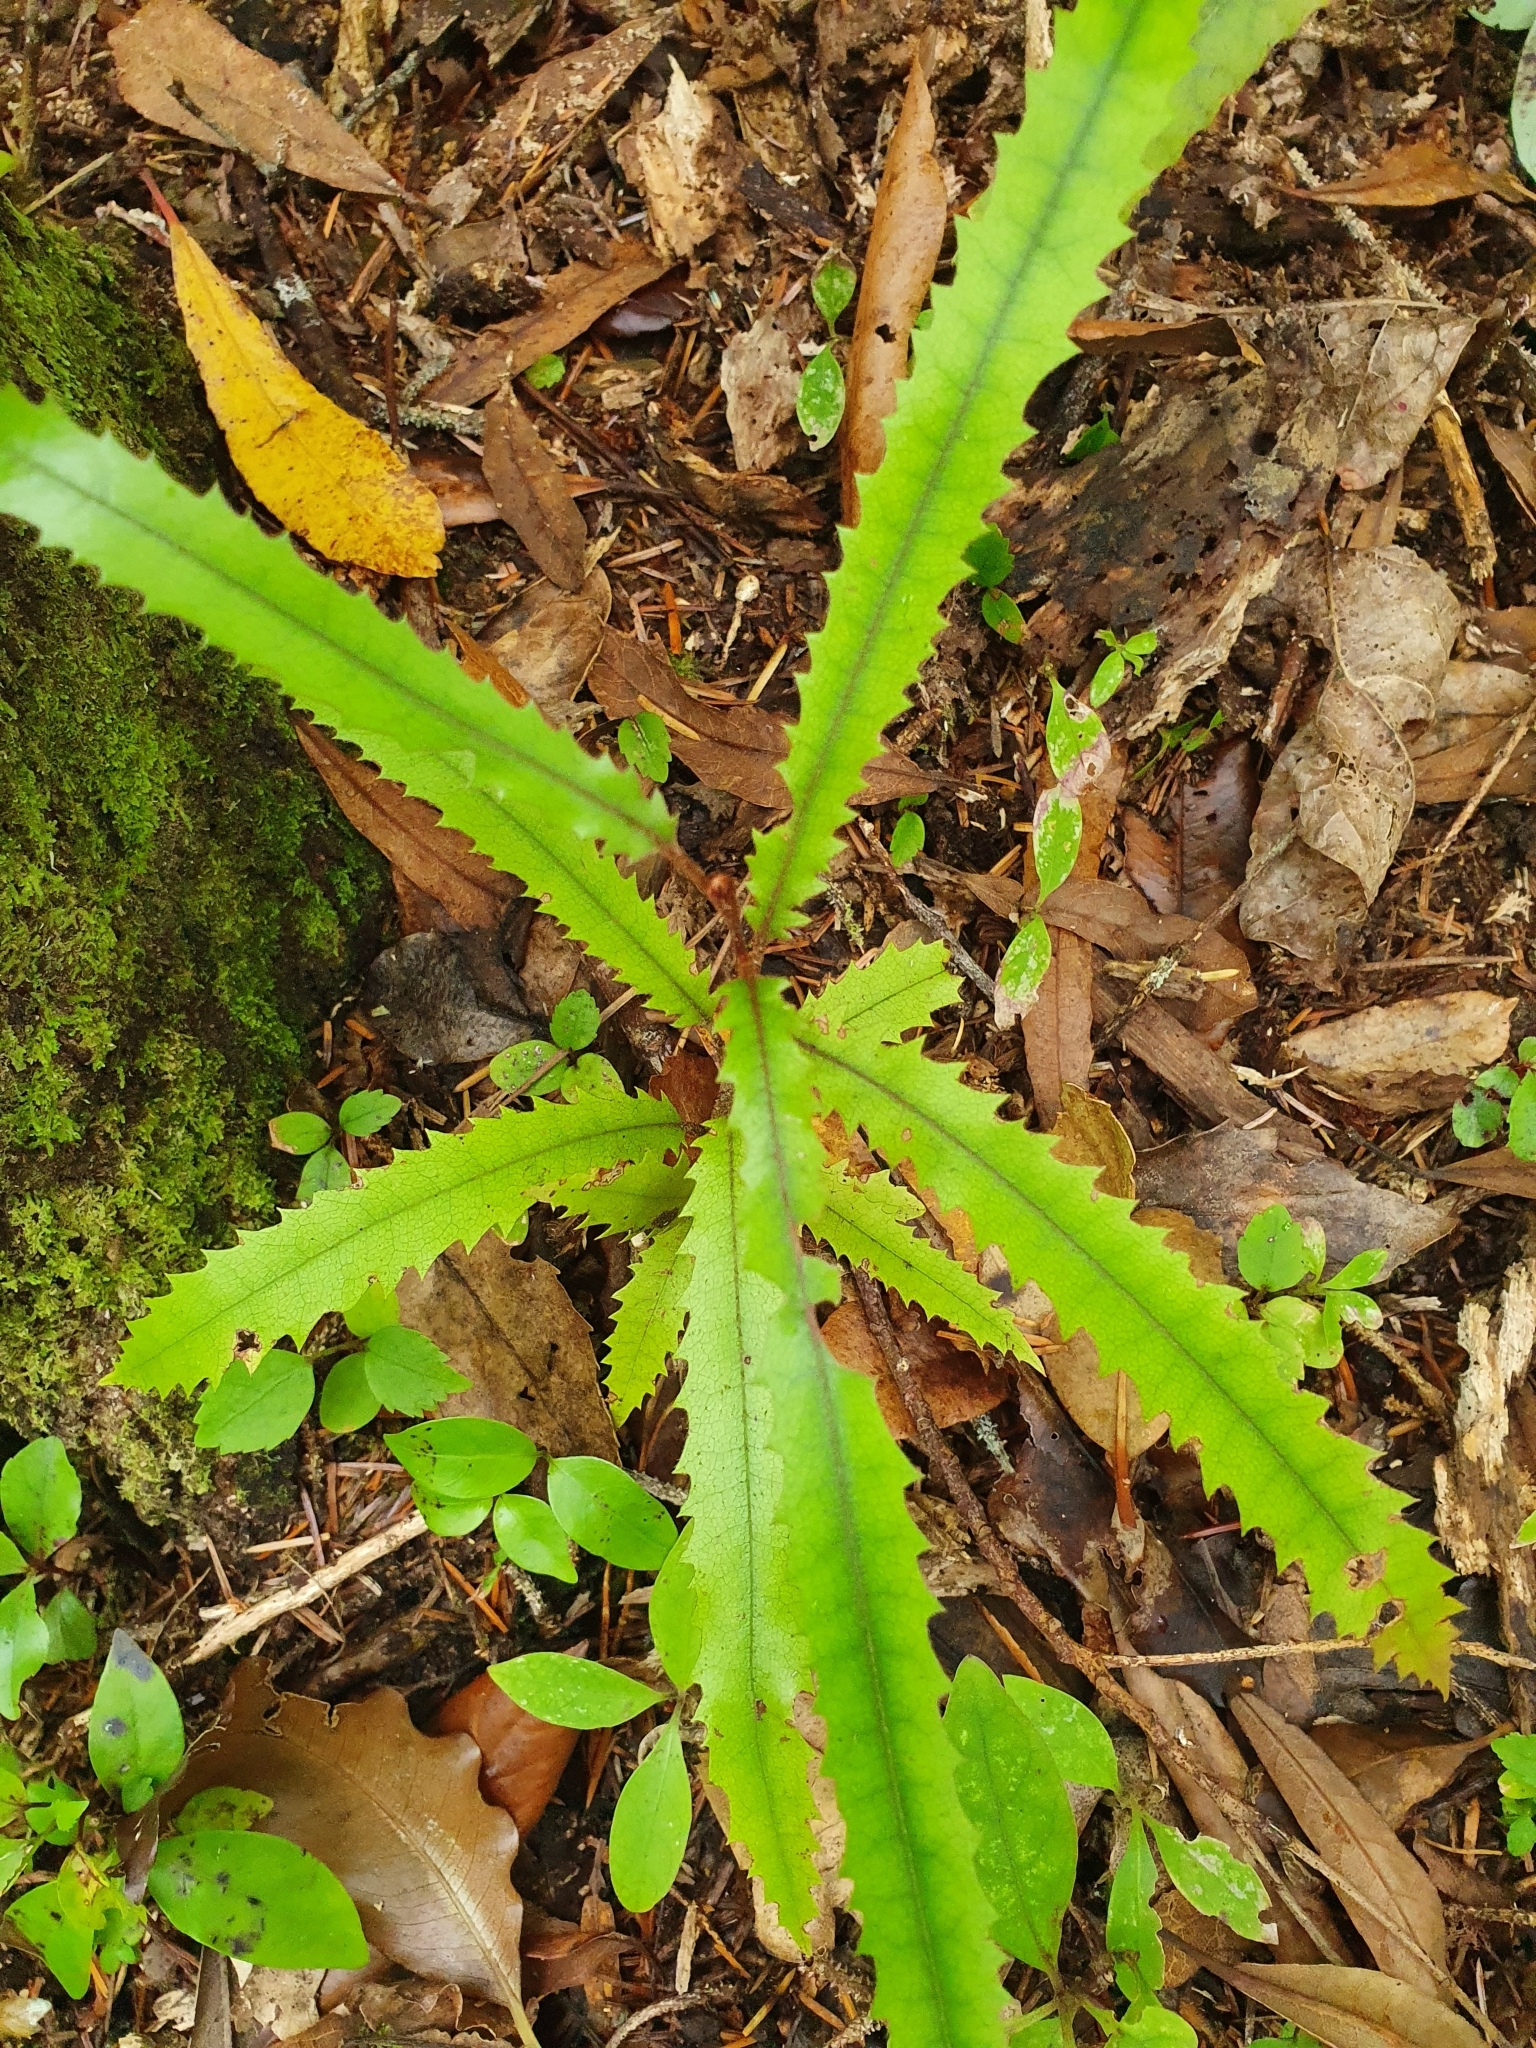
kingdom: Plantae
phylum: Tracheophyta
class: Magnoliopsida
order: Proteales
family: Proteaceae
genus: Knightia
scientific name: Knightia excelsa
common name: New zealand-honeysuckle
